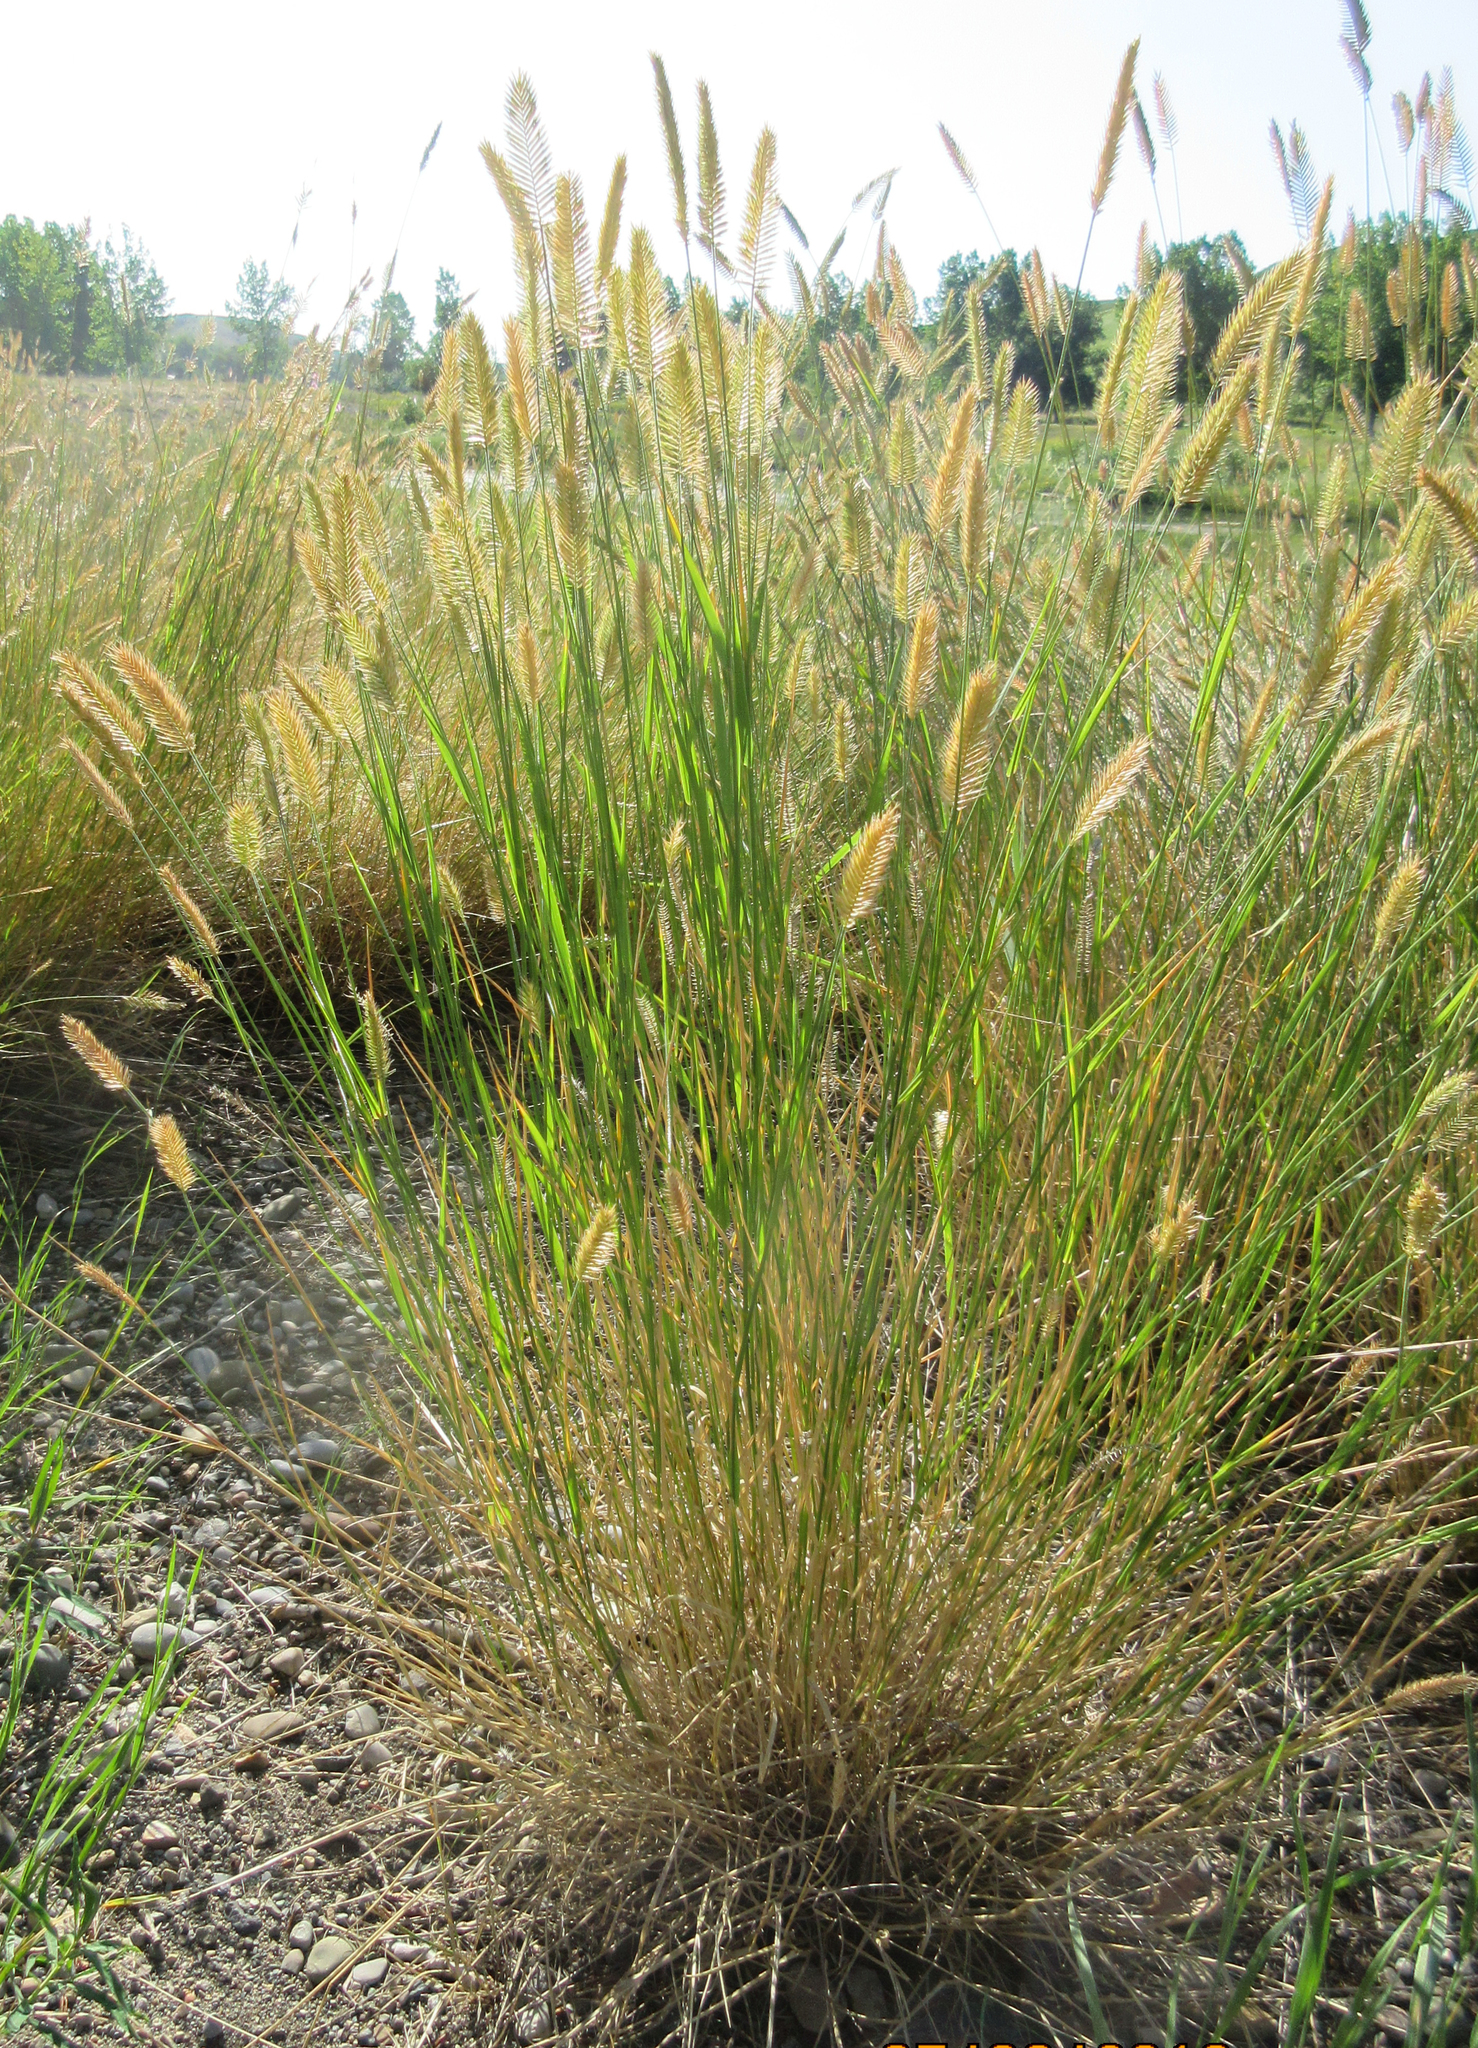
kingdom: Plantae
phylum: Tracheophyta
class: Liliopsida
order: Poales
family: Poaceae
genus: Agropyron
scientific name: Agropyron cristatum
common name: Crested wheatgrass
